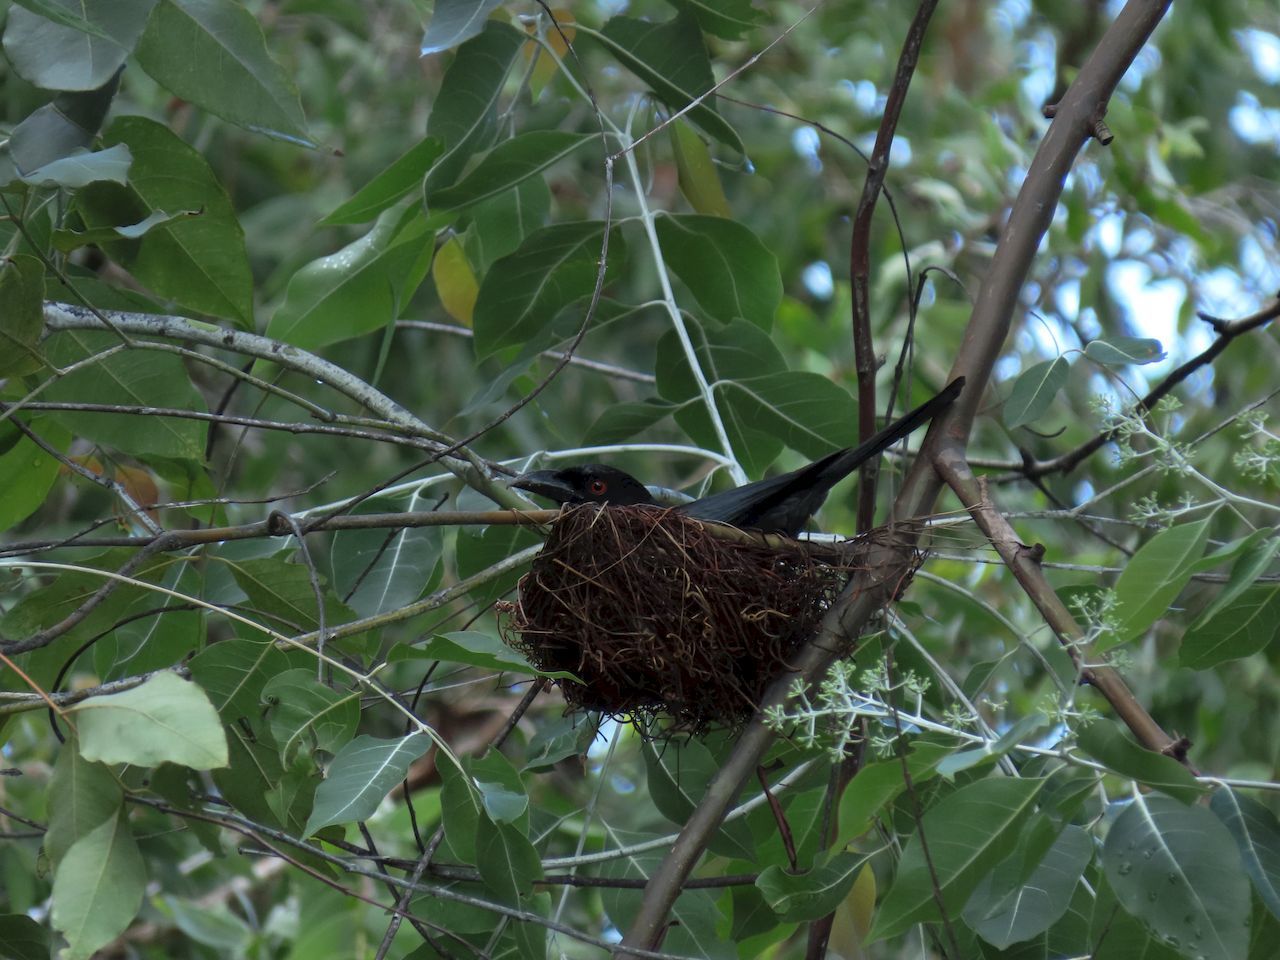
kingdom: Animalia
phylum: Chordata
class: Aves
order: Passeriformes
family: Dicruridae
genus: Dicrurus
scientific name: Dicrurus bracteatus
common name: Spangled drongo
